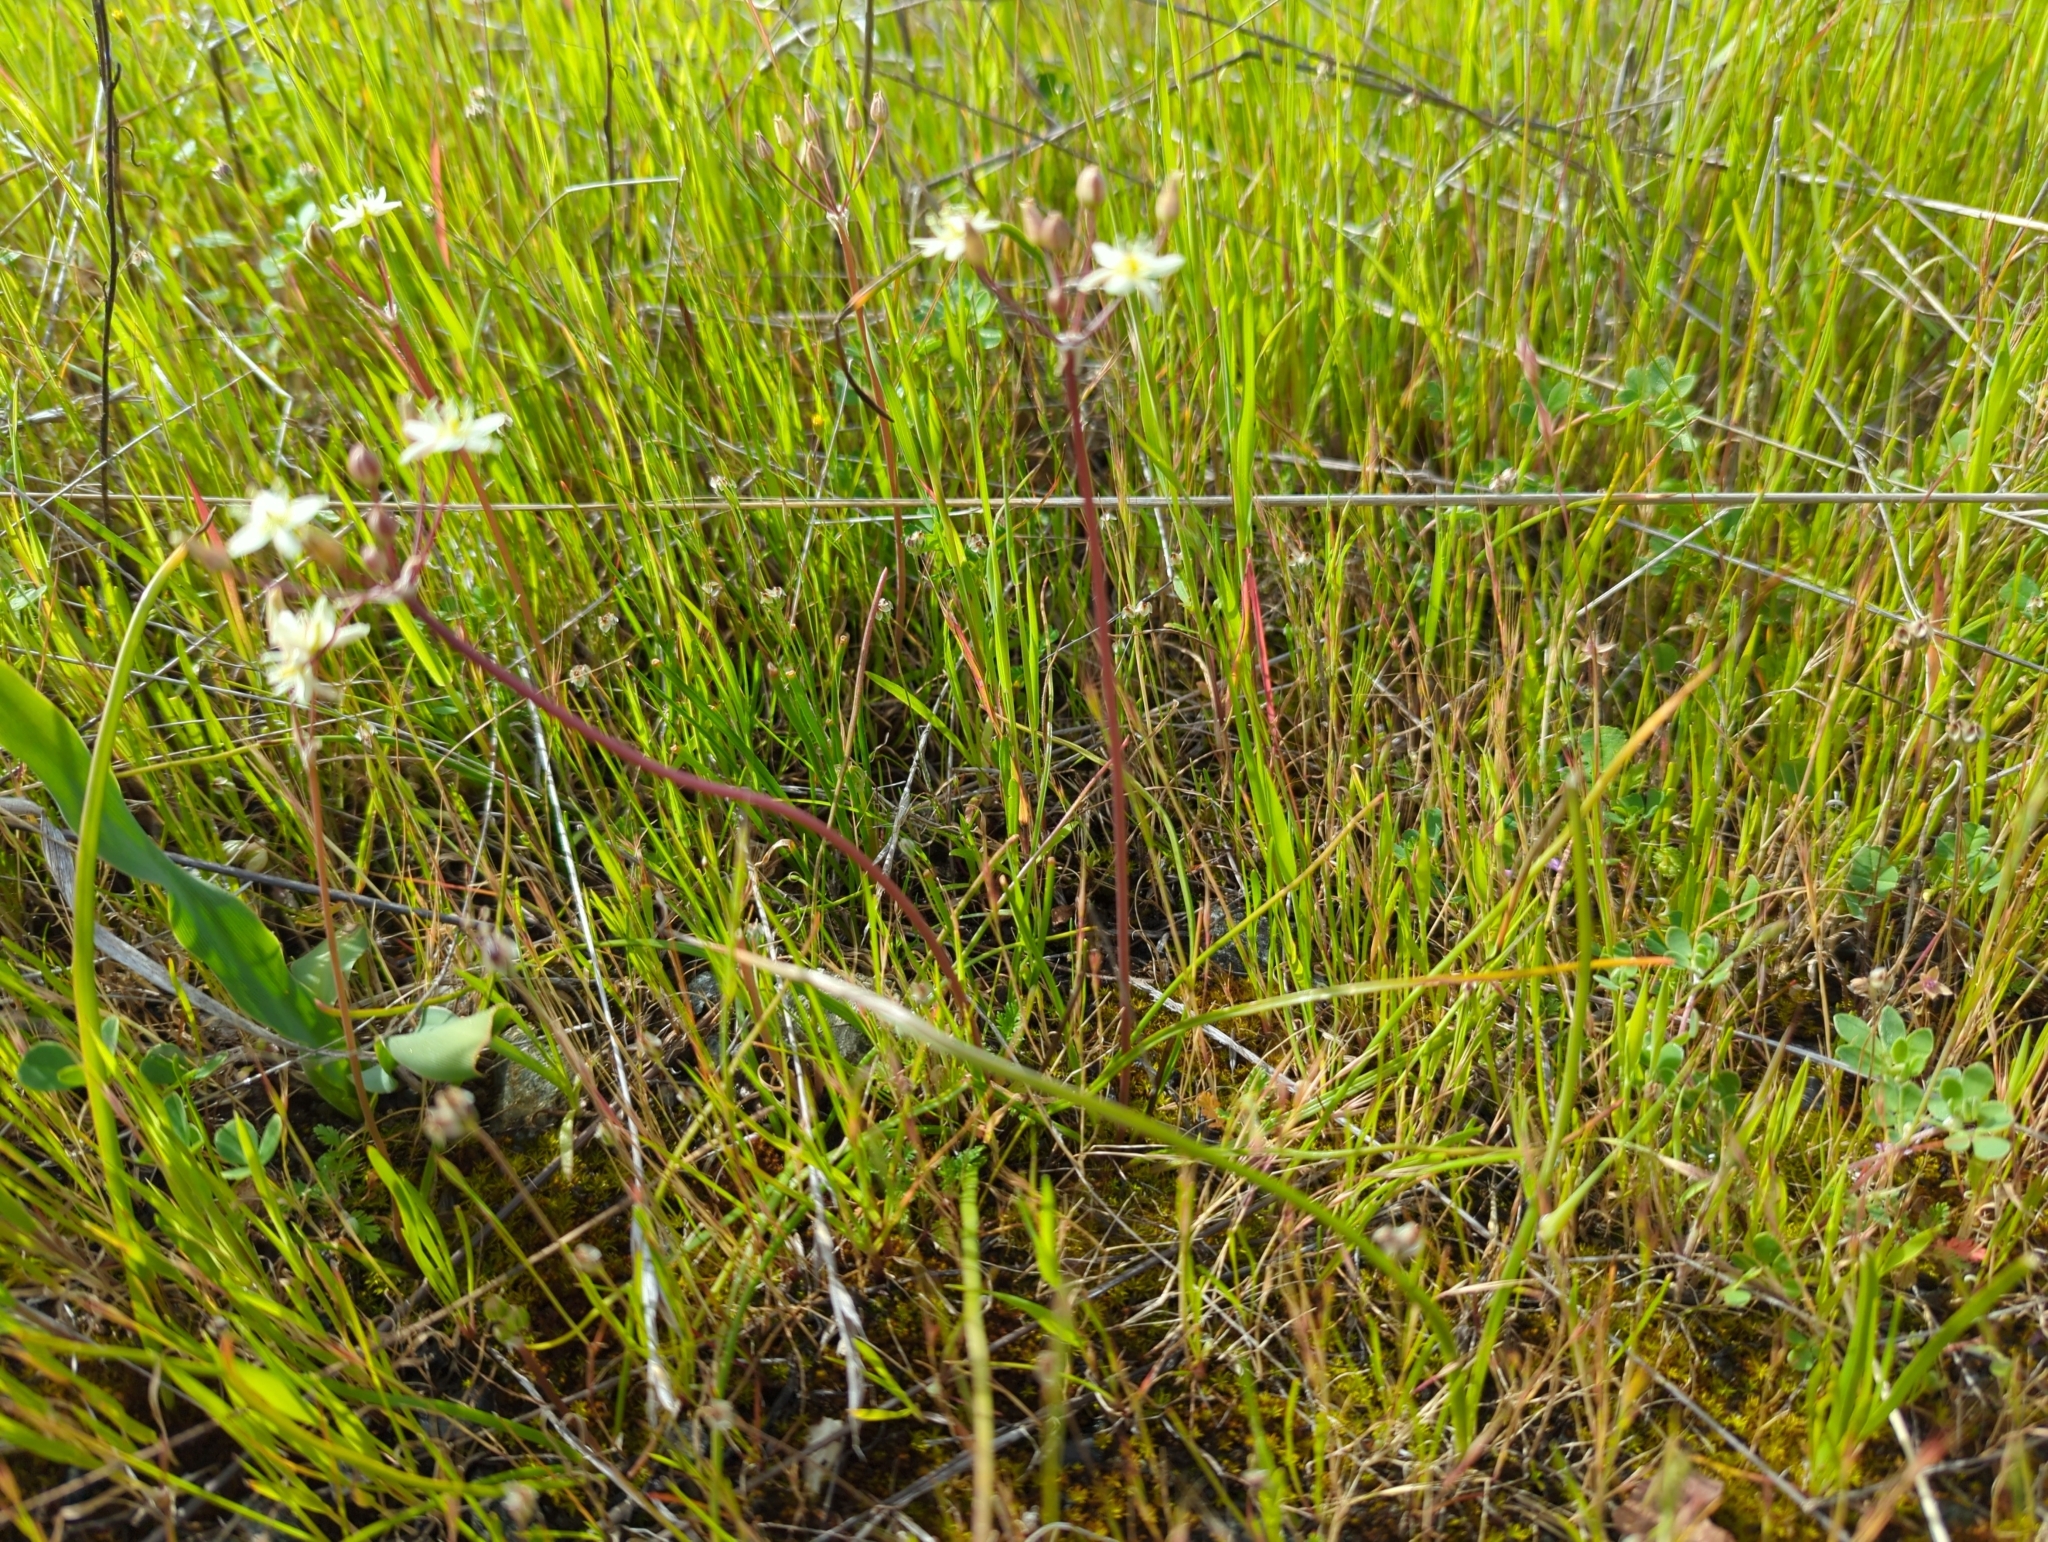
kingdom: Plantae
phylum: Tracheophyta
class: Liliopsida
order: Asparagales
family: Asparagaceae
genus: Muilla
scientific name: Muilla maritima
